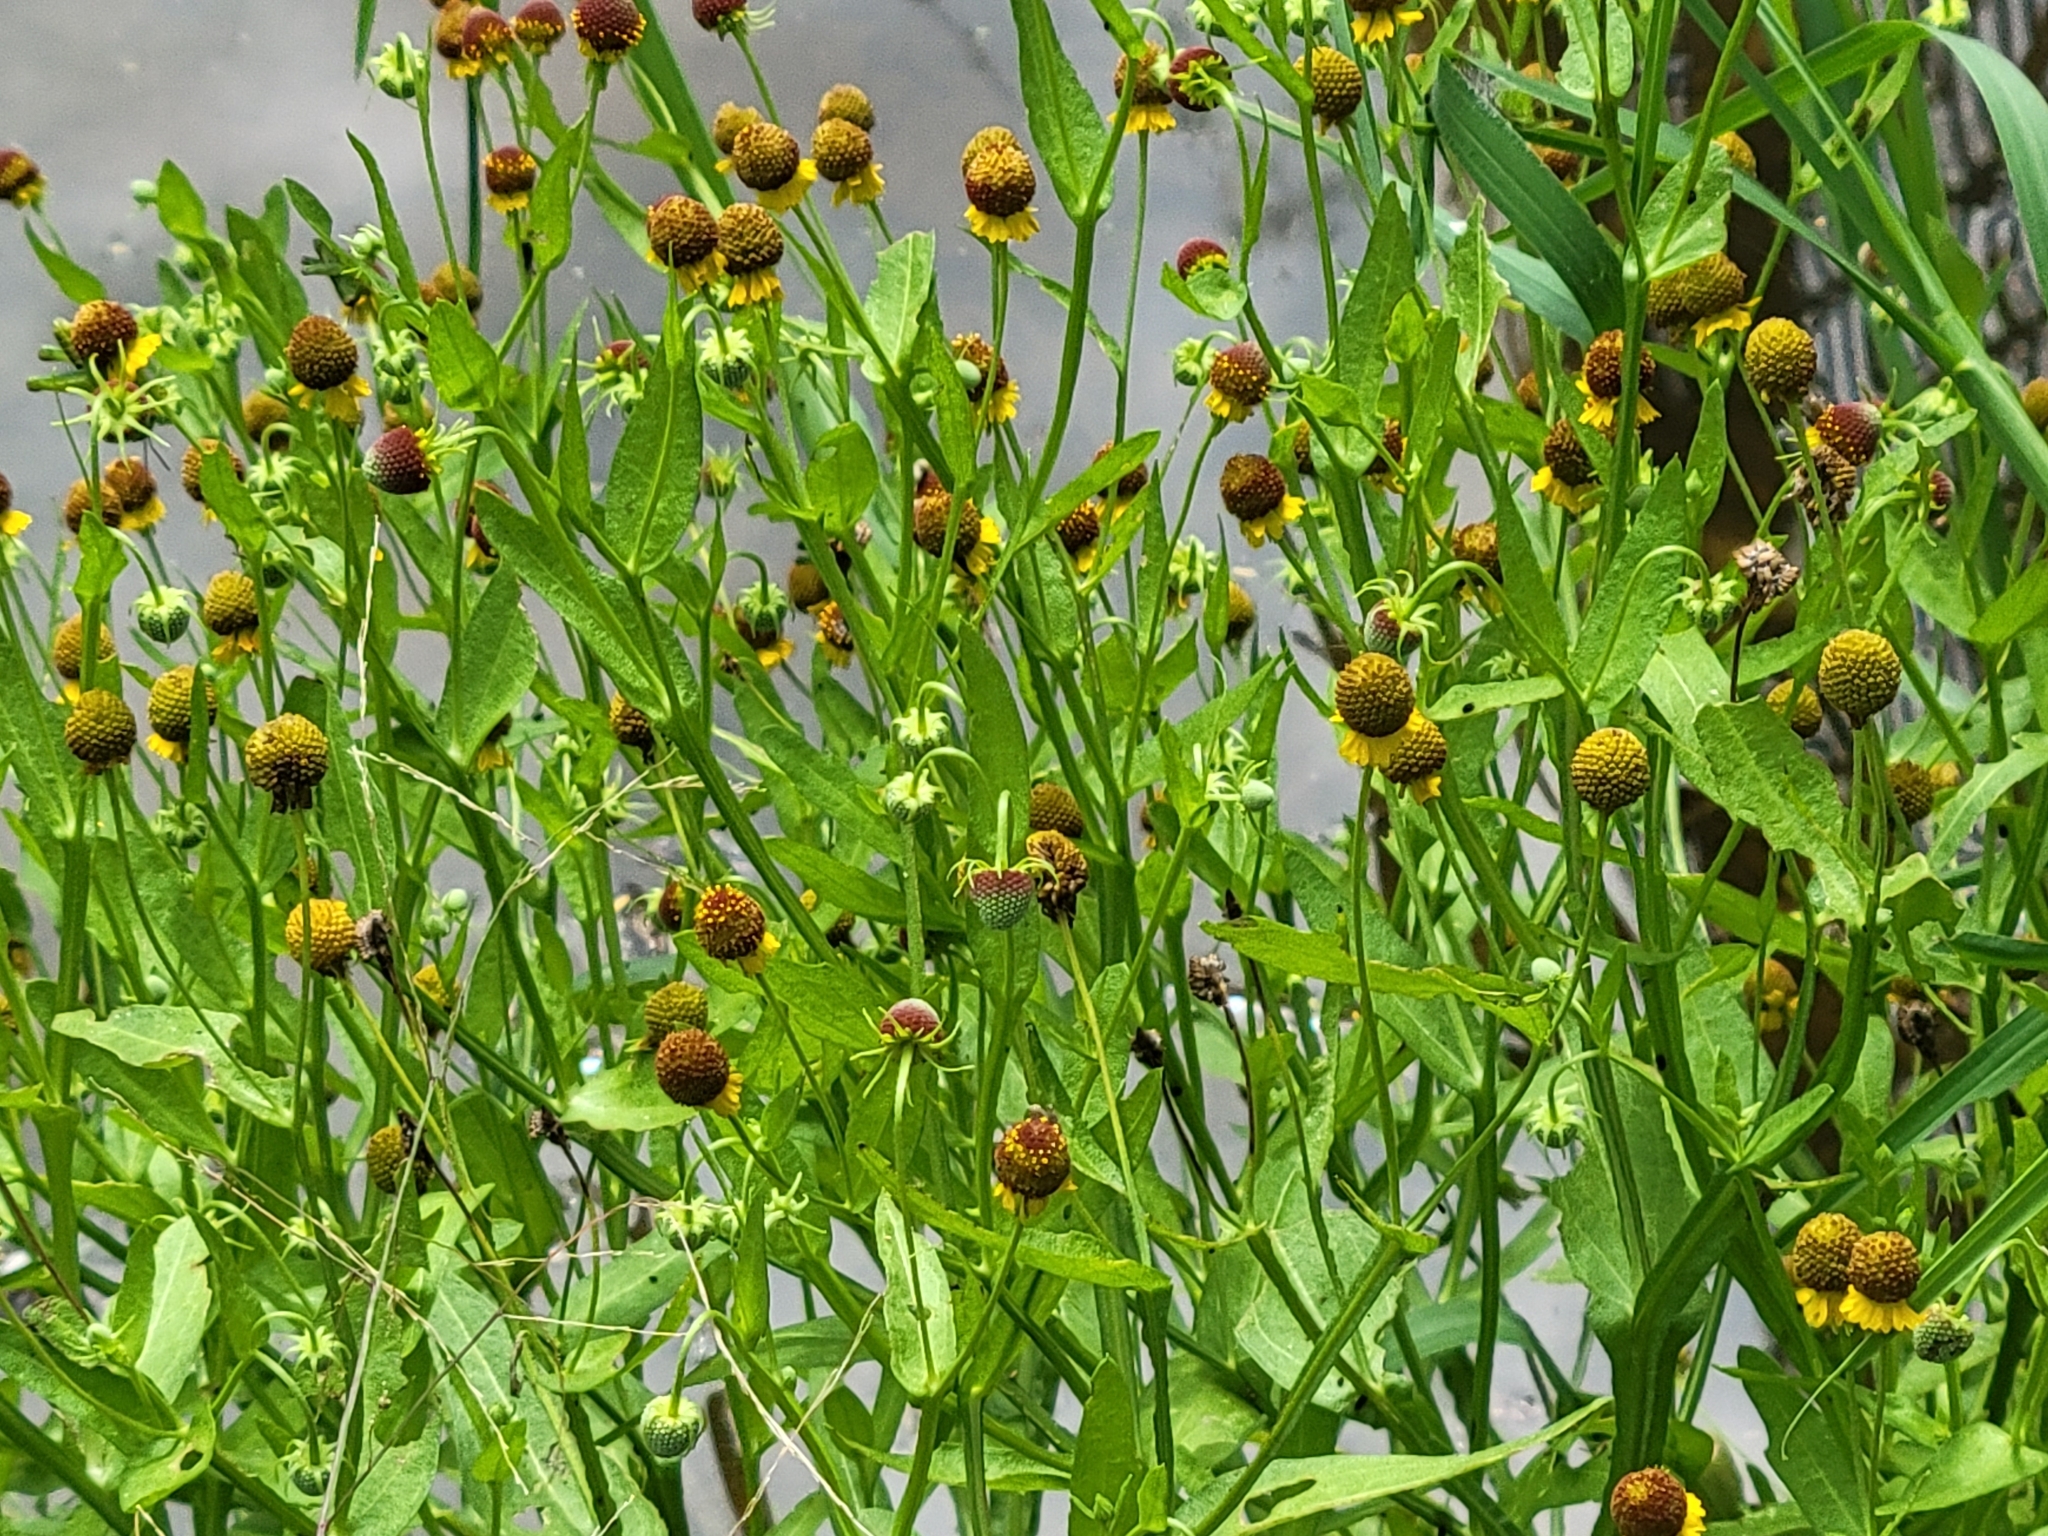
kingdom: Plantae
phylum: Tracheophyta
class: Magnoliopsida
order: Asterales
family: Asteraceae
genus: Helenium
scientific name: Helenium microcephalum
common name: Smallhead sneezeweed
